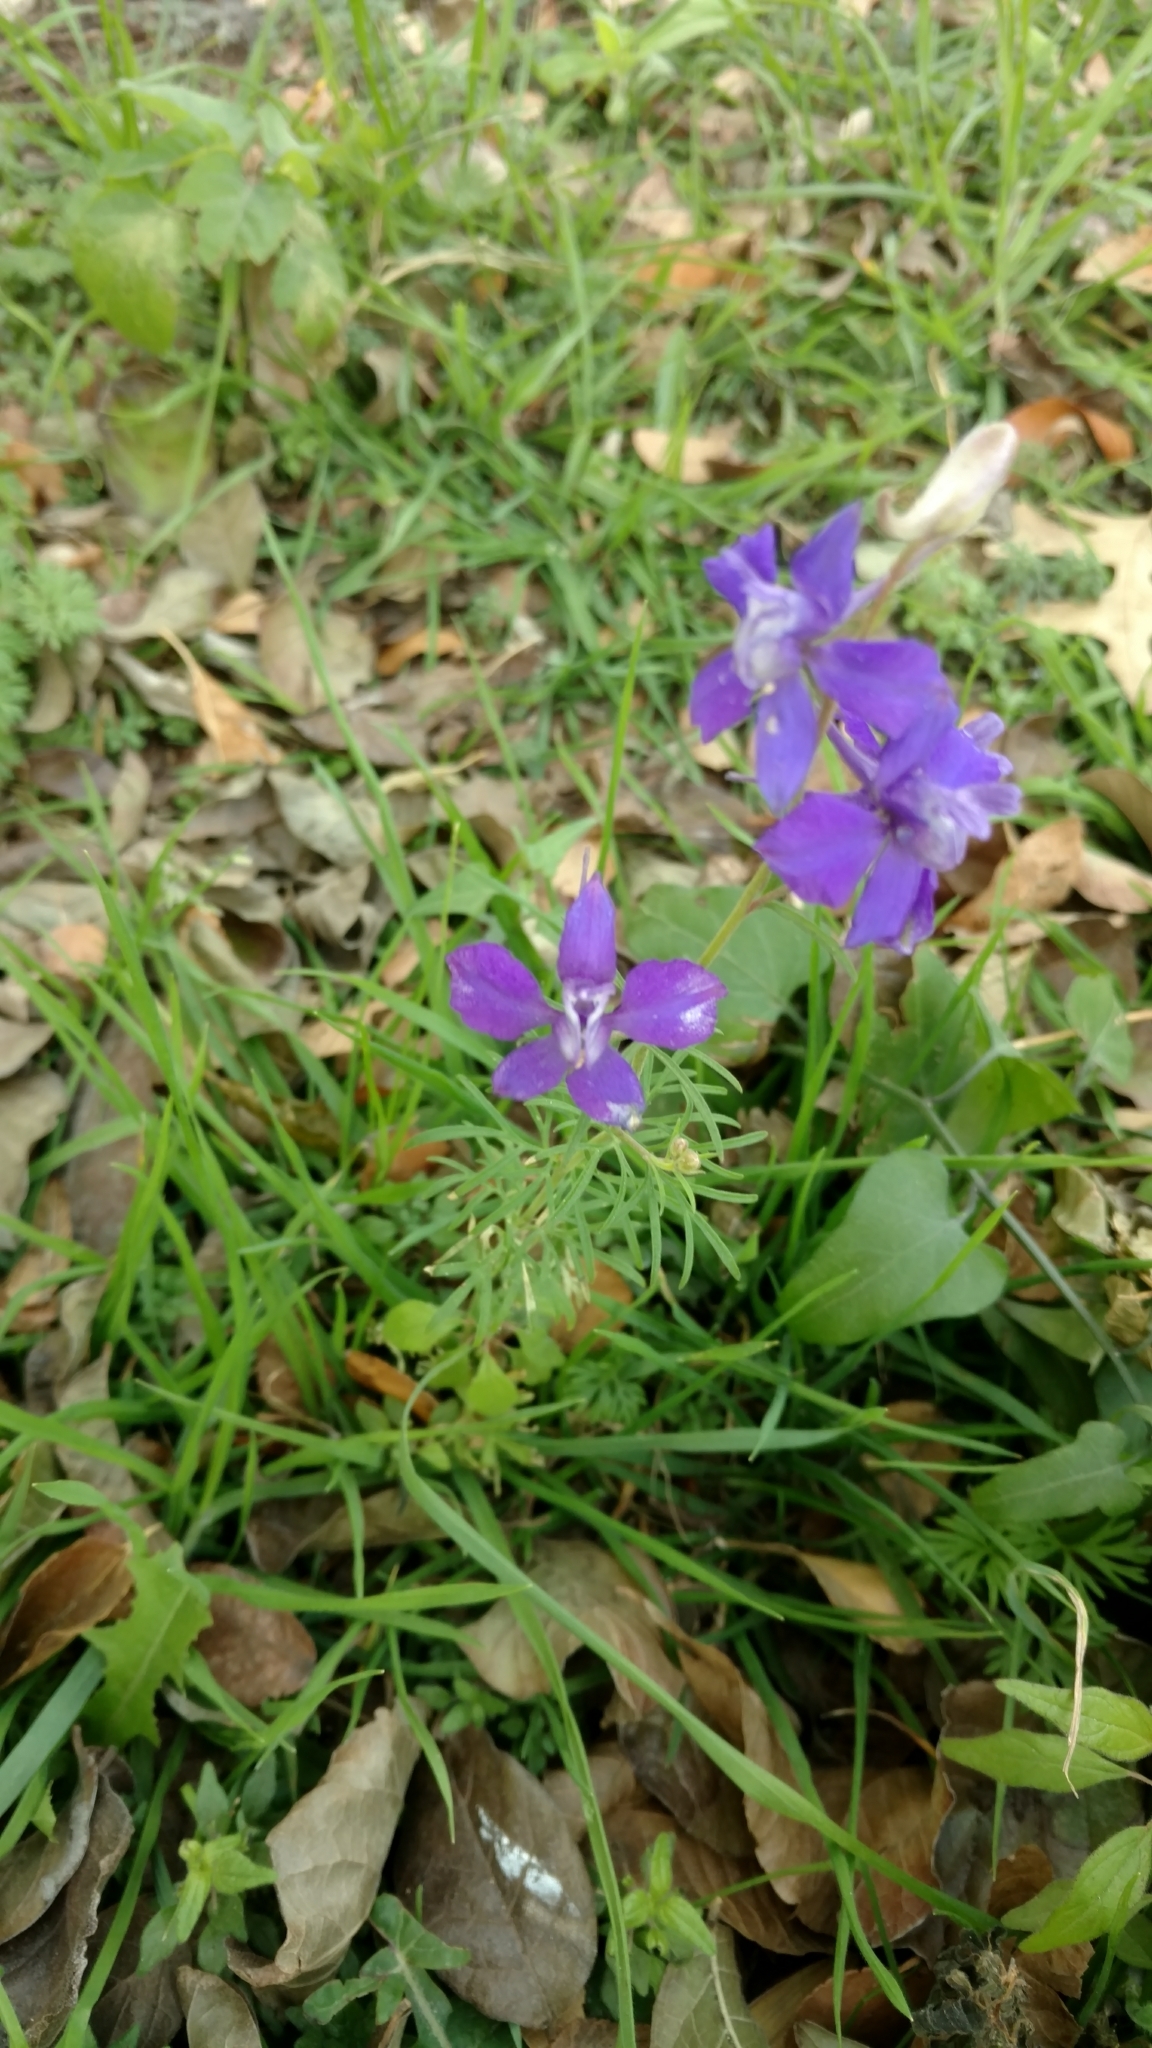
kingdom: Plantae
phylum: Tracheophyta
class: Magnoliopsida
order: Ranunculales
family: Ranunculaceae
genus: Delphinium
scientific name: Delphinium ajacis
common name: Doubtful knight's-spur
